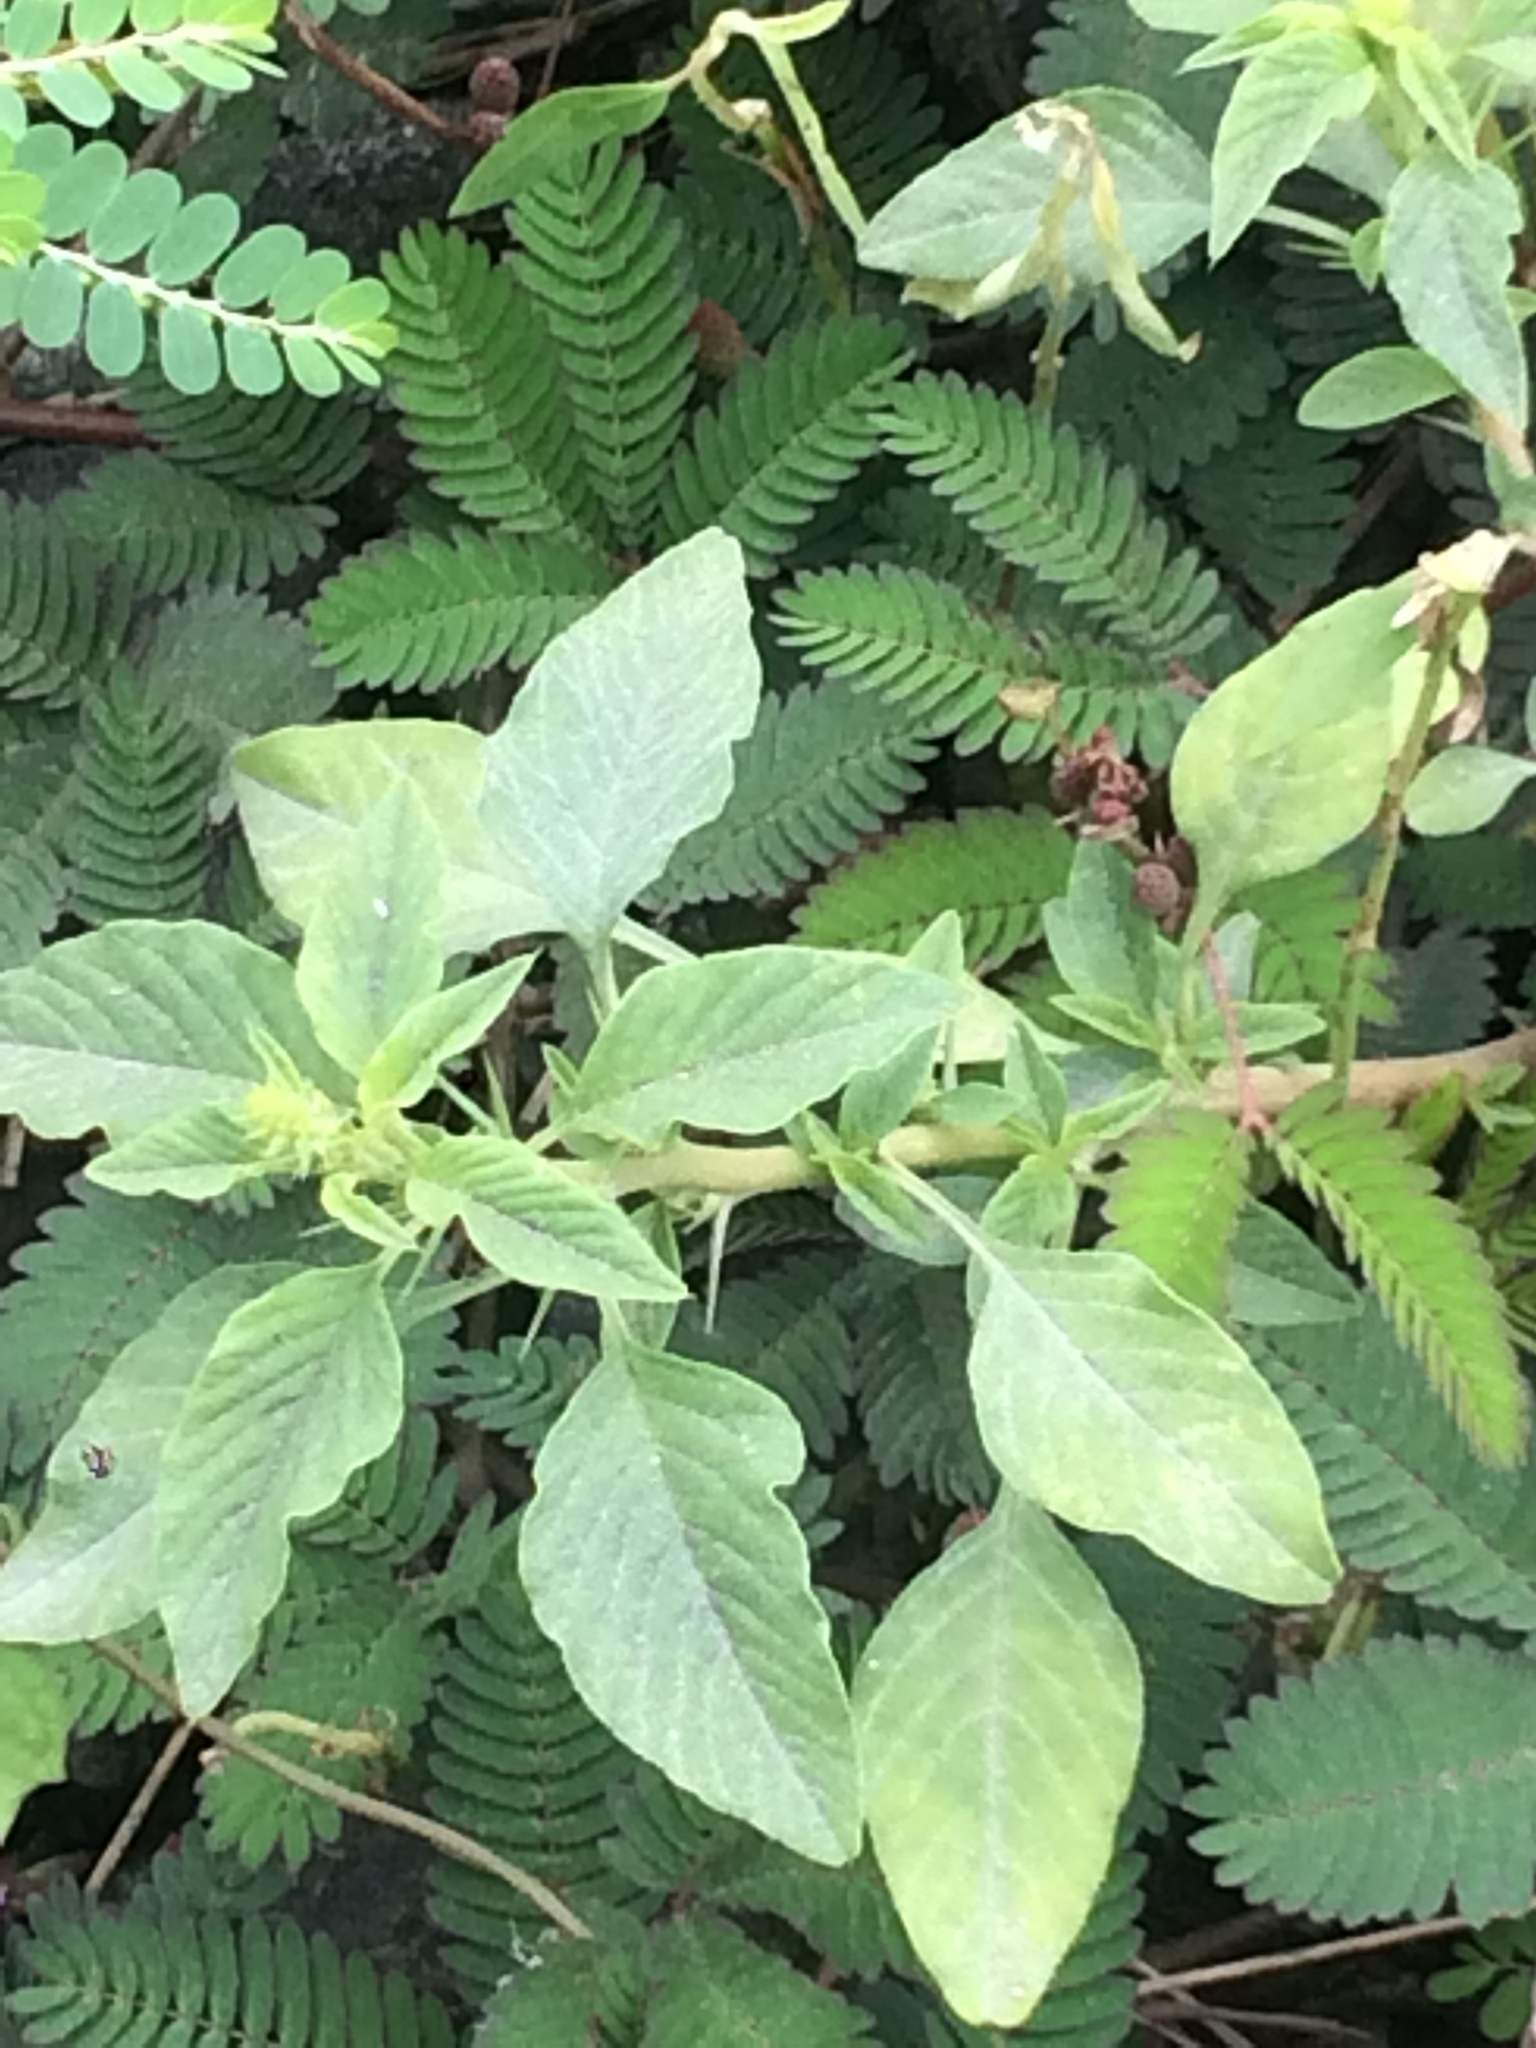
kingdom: Plantae
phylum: Tracheophyta
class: Magnoliopsida
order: Caryophyllales
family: Amaranthaceae
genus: Amaranthus
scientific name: Amaranthus spinosus
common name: Spiny amaranth
